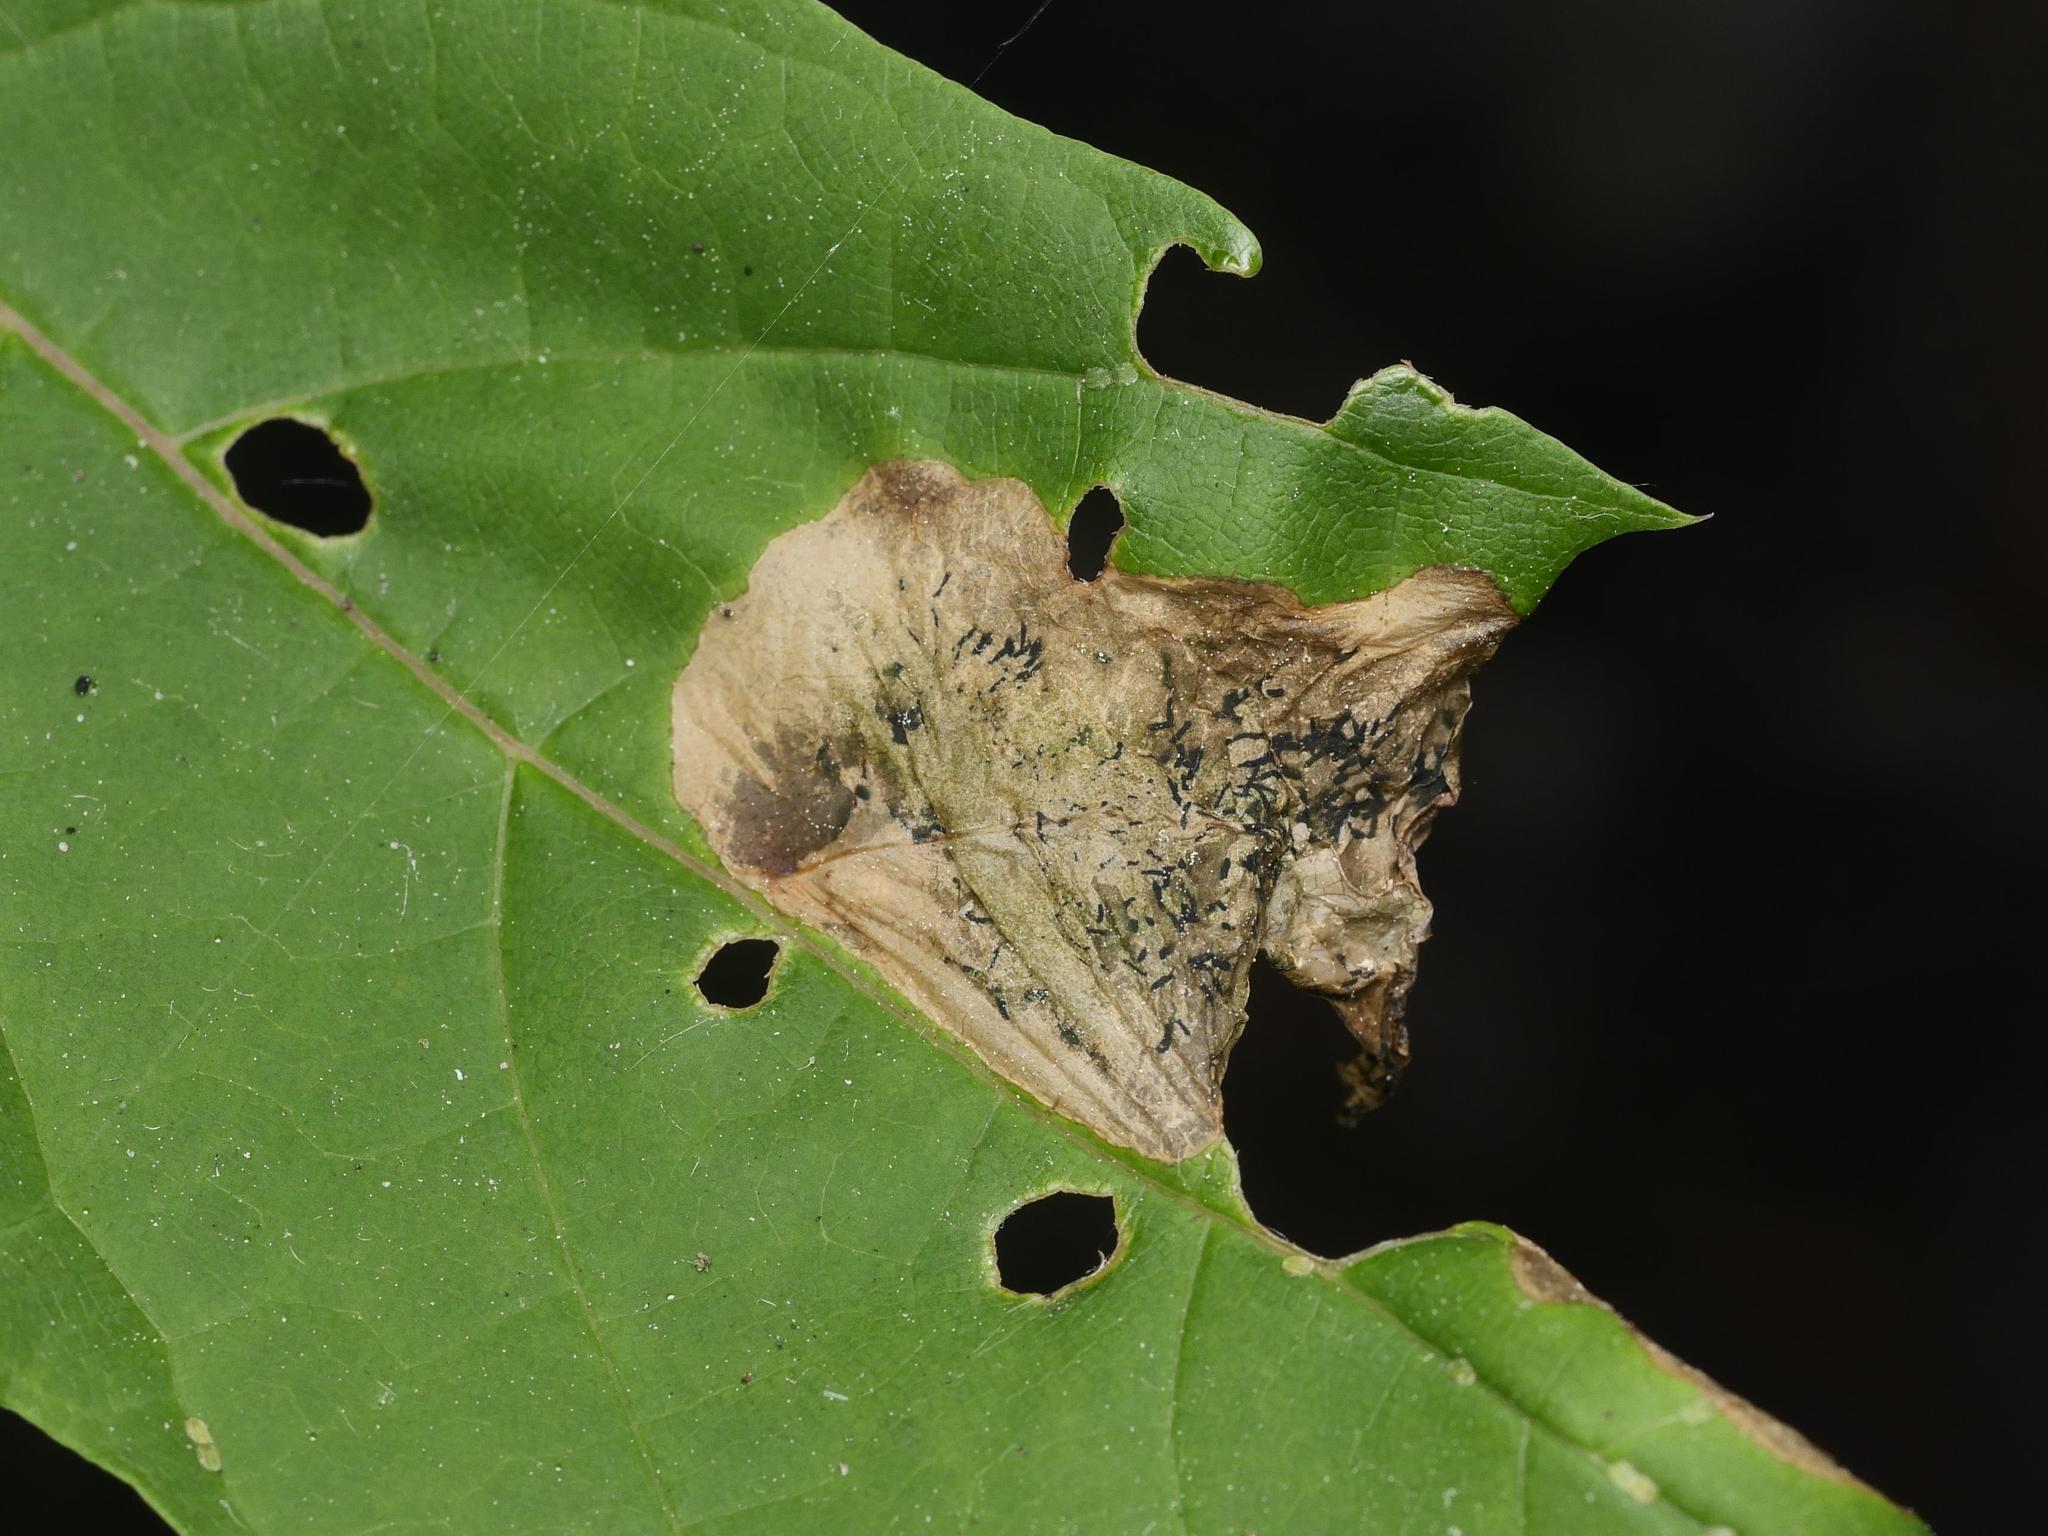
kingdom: Animalia
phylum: Arthropoda
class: Insecta
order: Hymenoptera
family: Tenthredinidae
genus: Hinatara
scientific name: Hinatara recta
